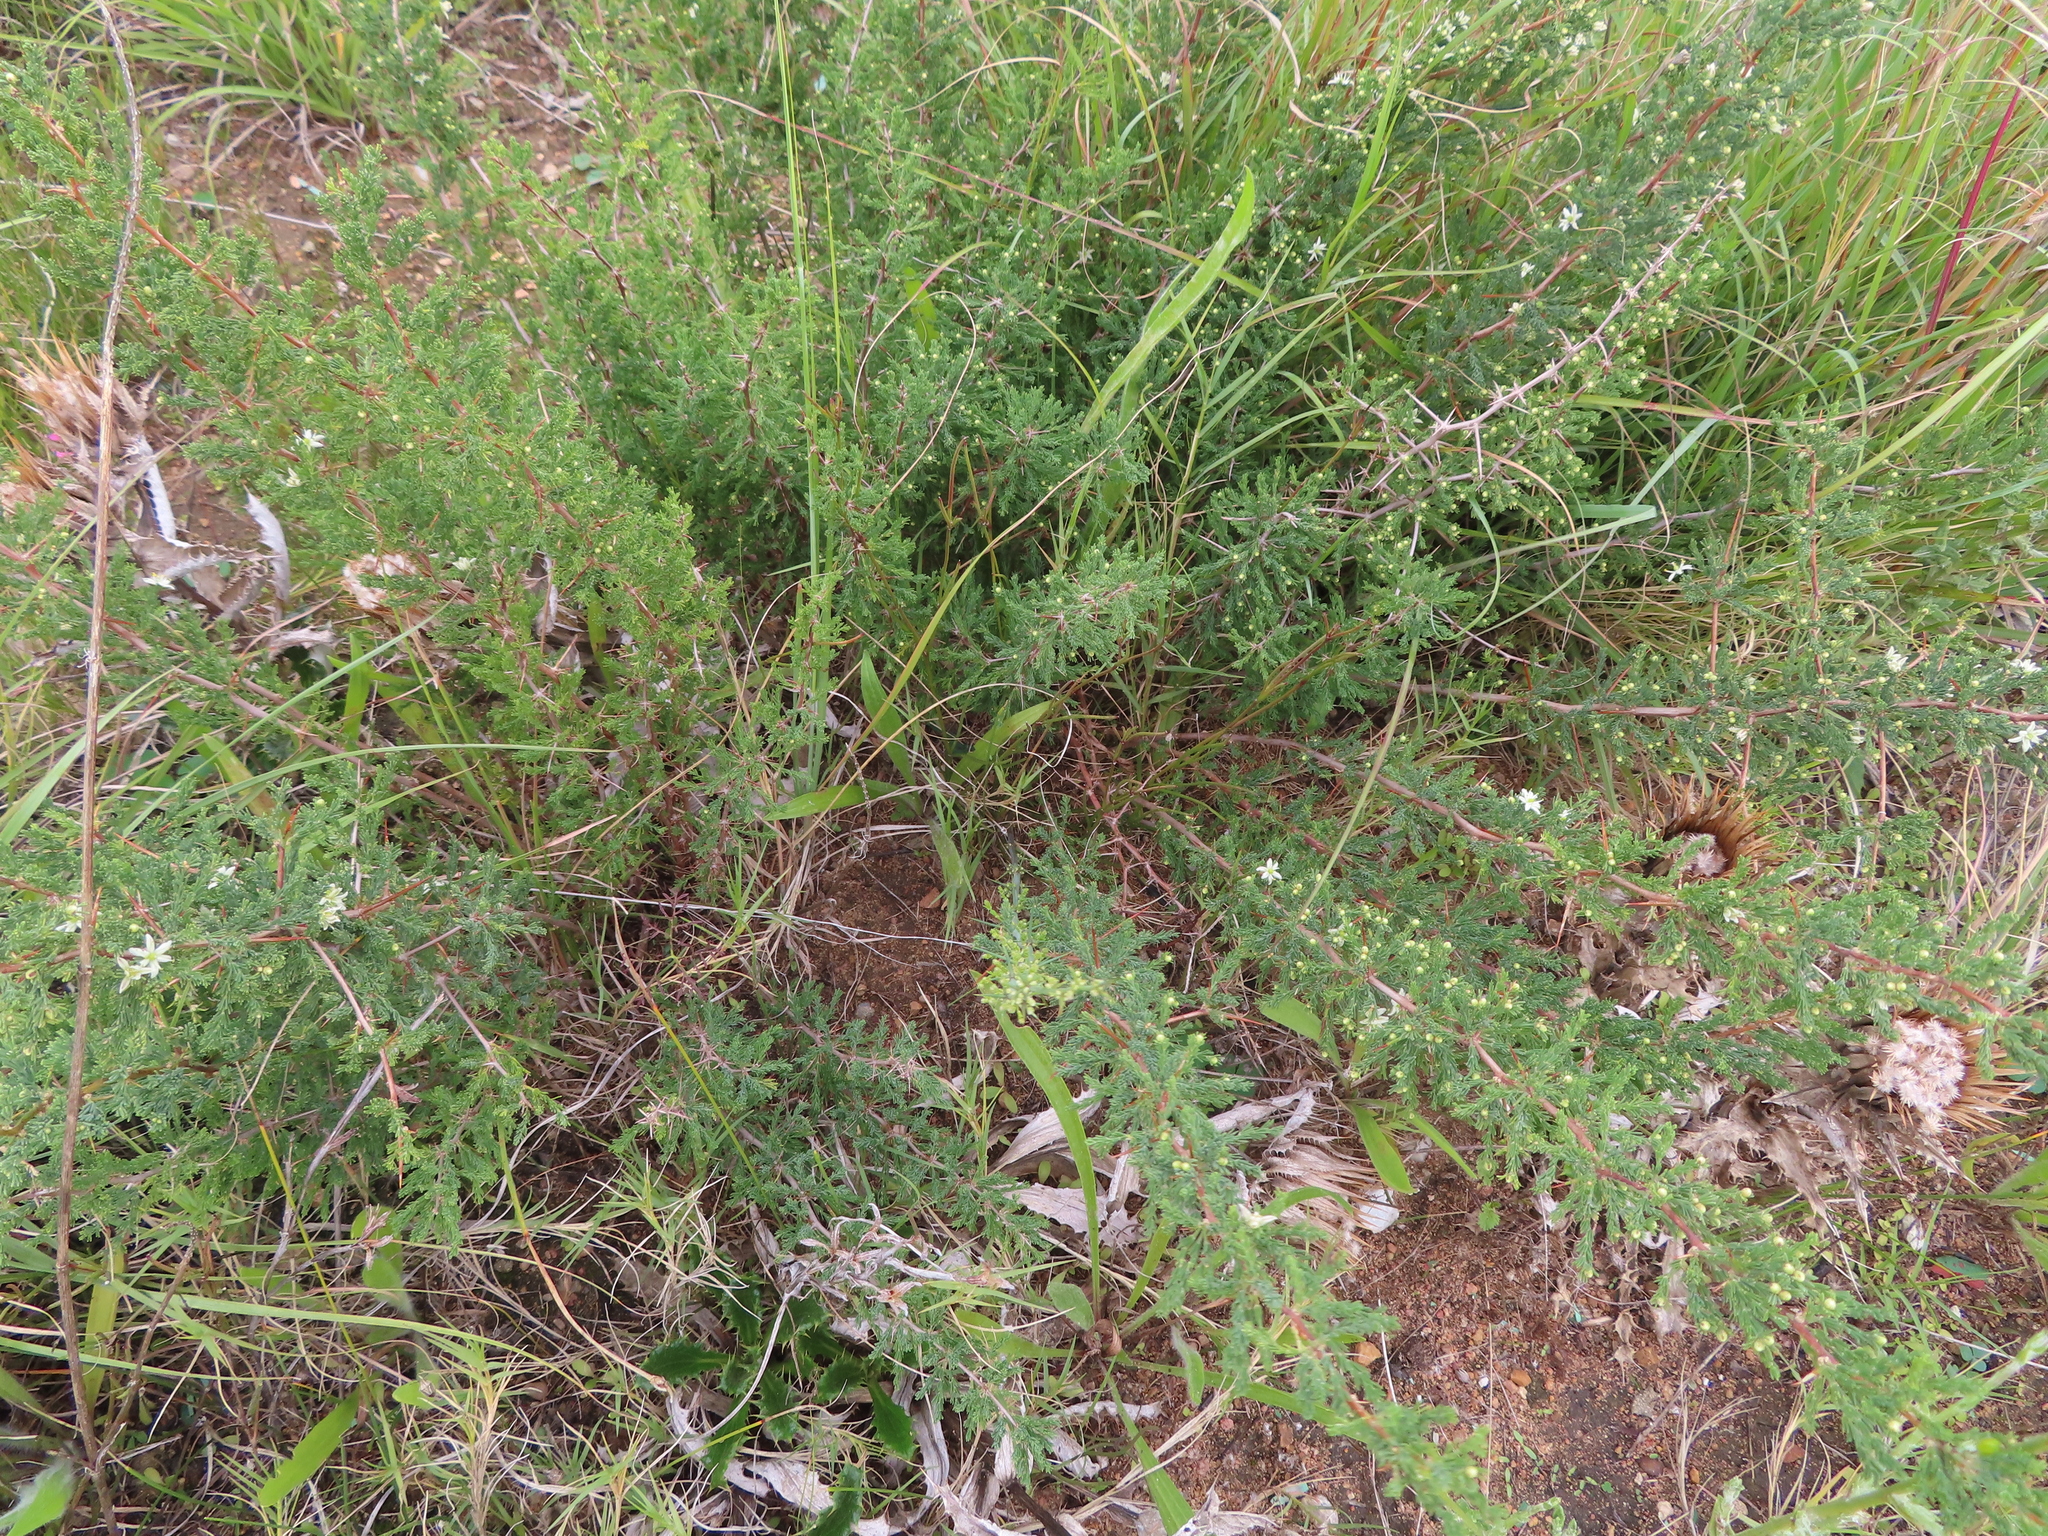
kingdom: Plantae
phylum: Tracheophyta
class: Liliopsida
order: Asparagales
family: Asparagaceae
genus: Asparagus
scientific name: Asparagus capensis
